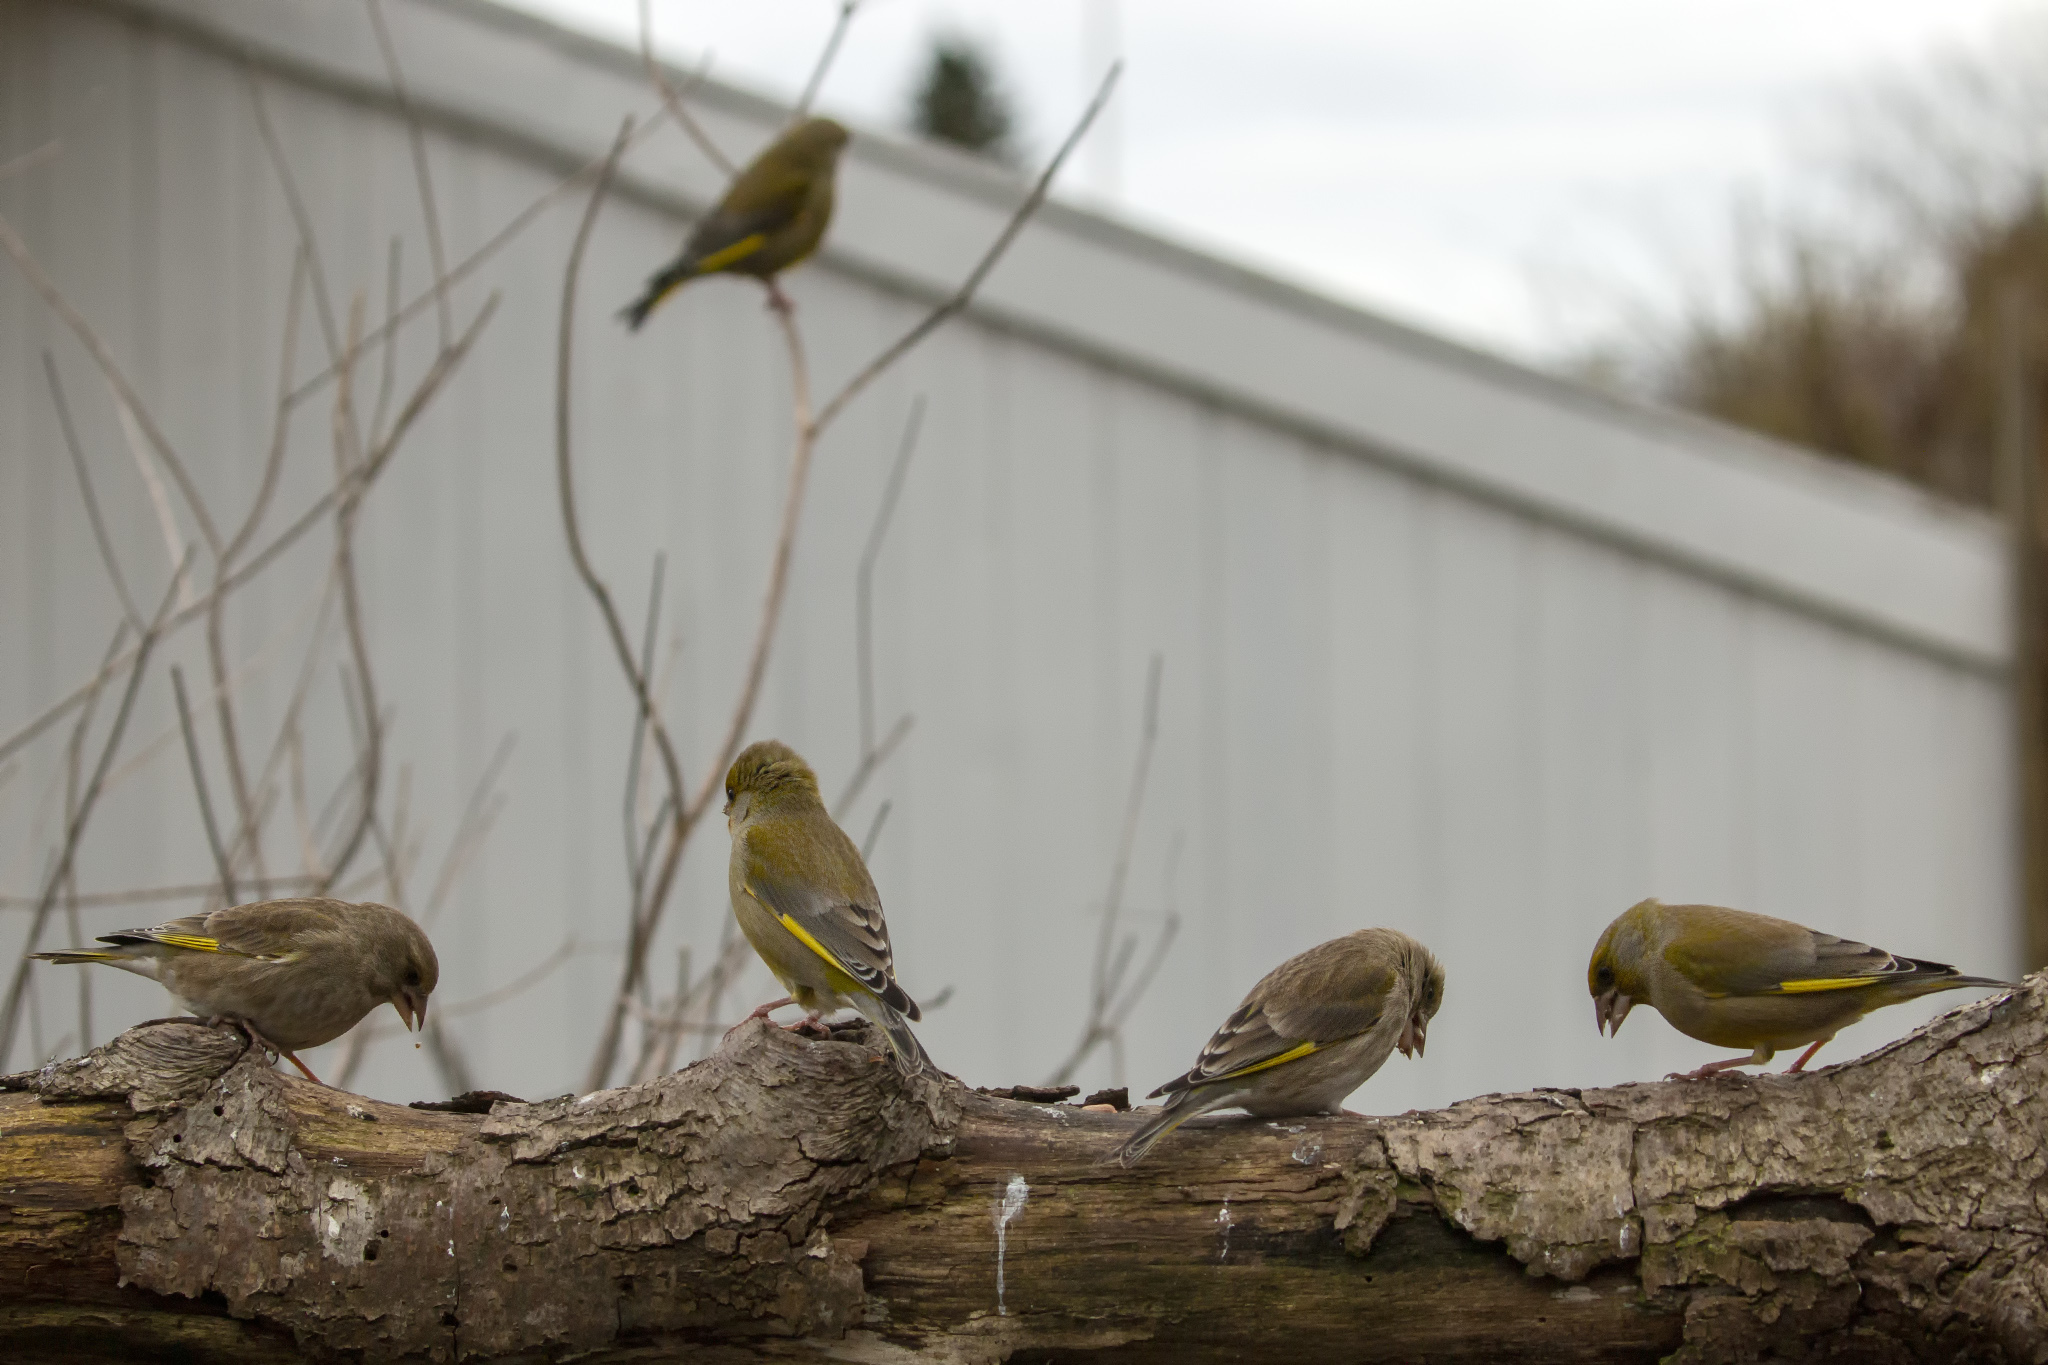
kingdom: Plantae
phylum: Tracheophyta
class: Liliopsida
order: Poales
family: Poaceae
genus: Chloris
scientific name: Chloris chloris
